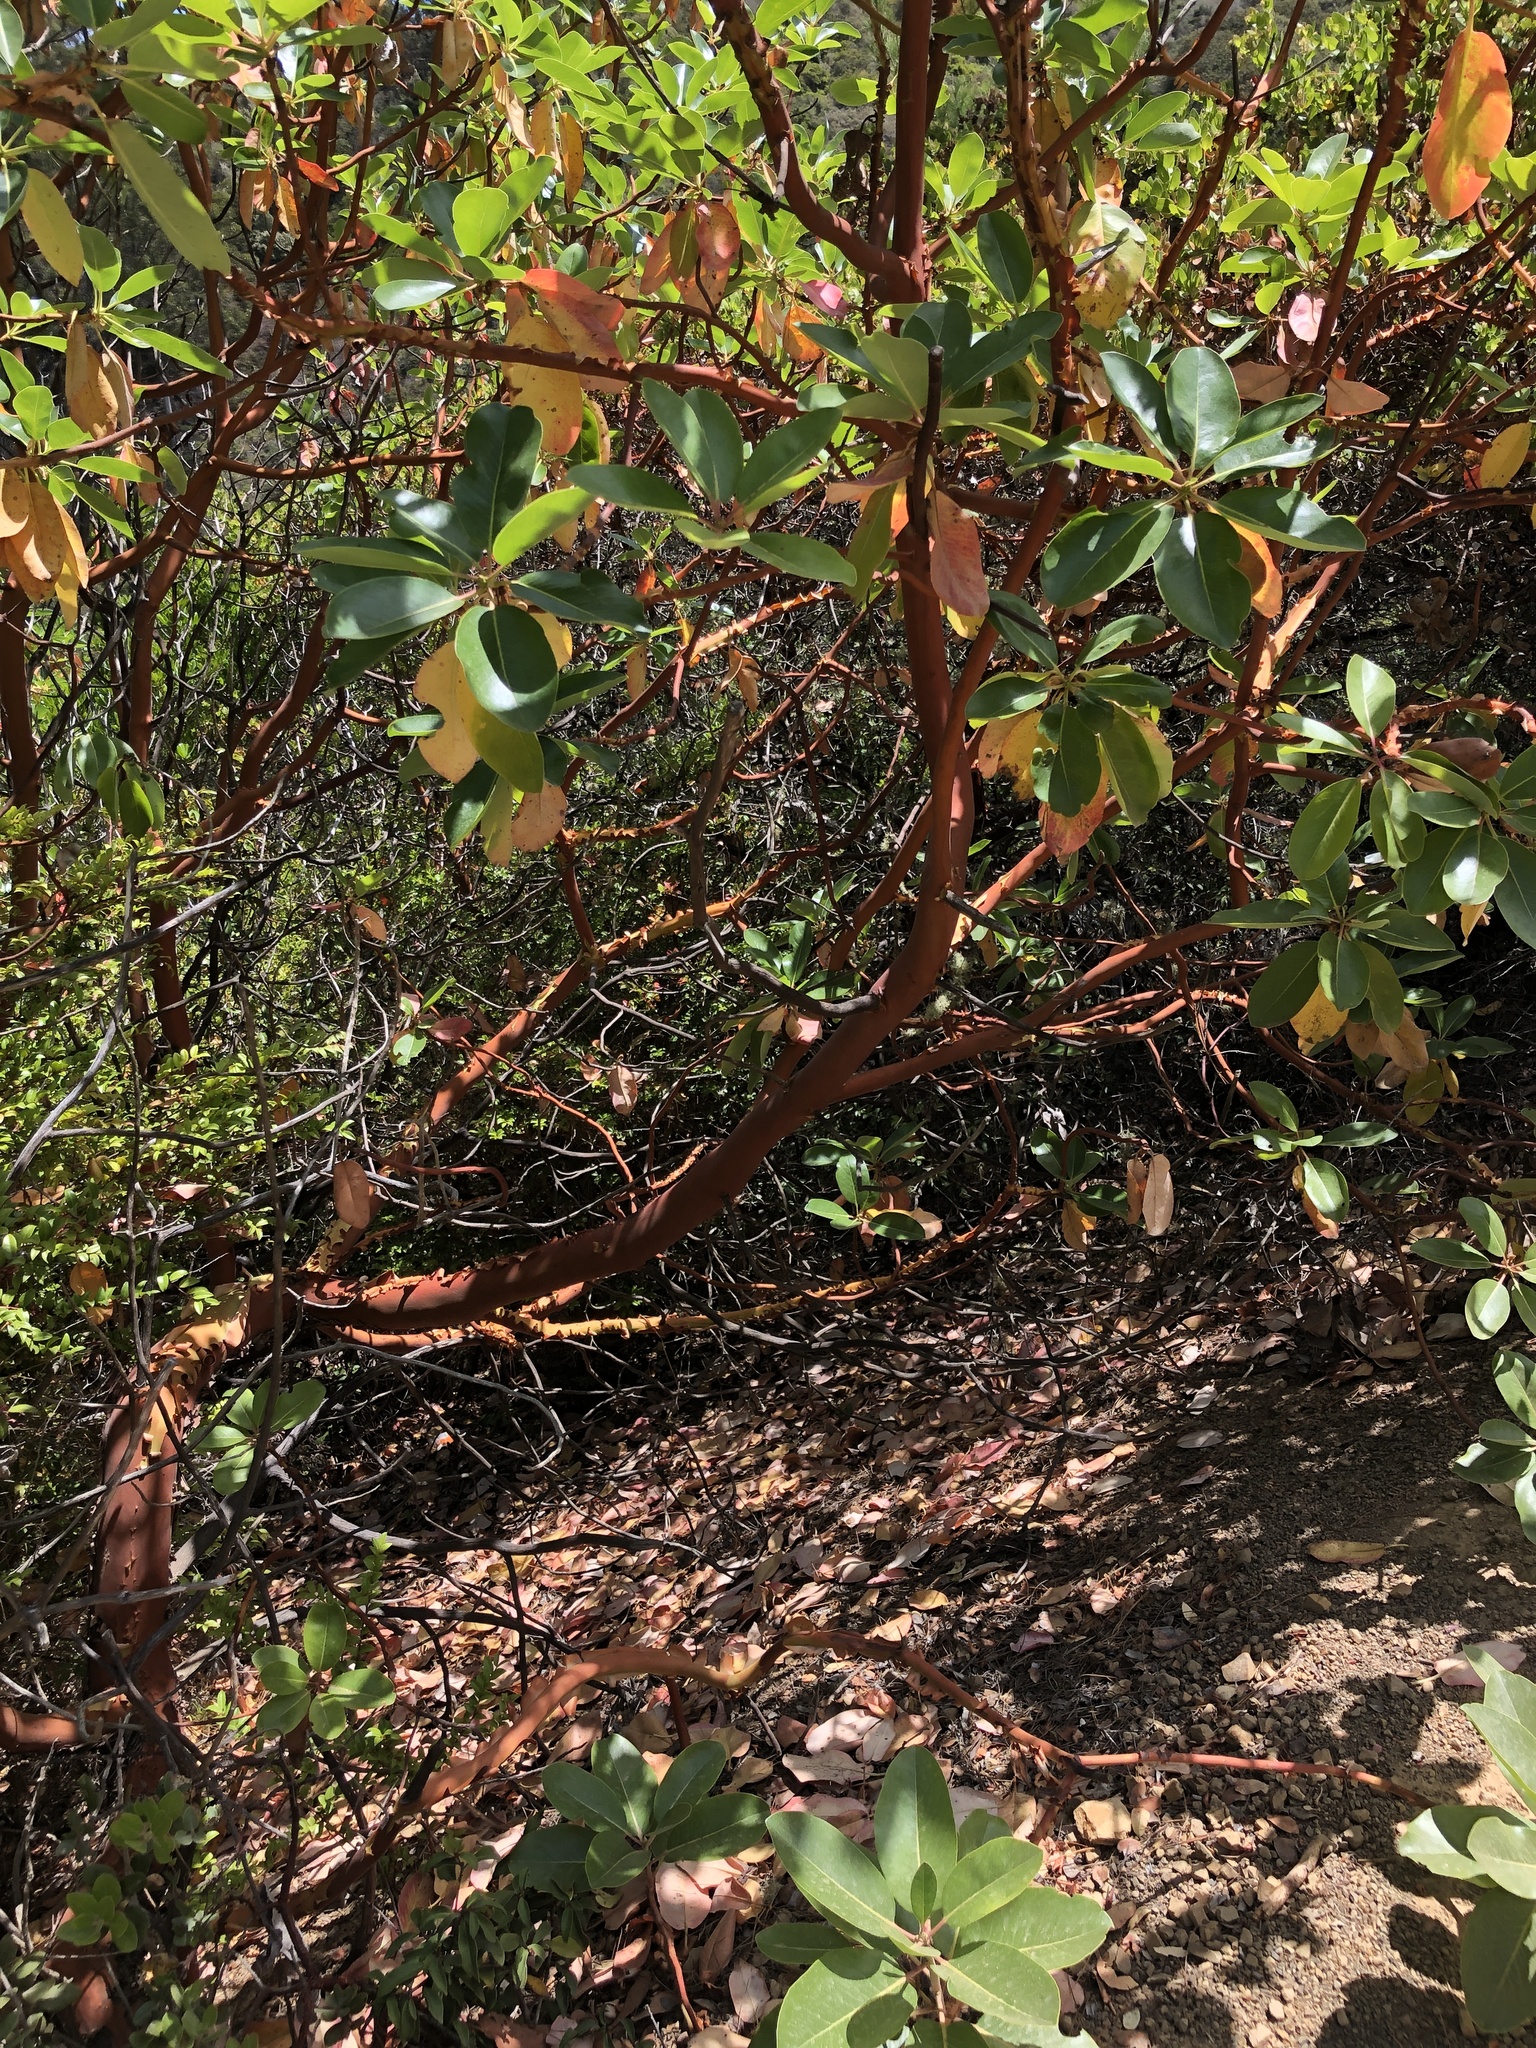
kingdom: Plantae
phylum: Tracheophyta
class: Magnoliopsida
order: Ericales
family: Ericaceae
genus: Arbutus
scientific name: Arbutus menziesii
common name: Pacific madrone
